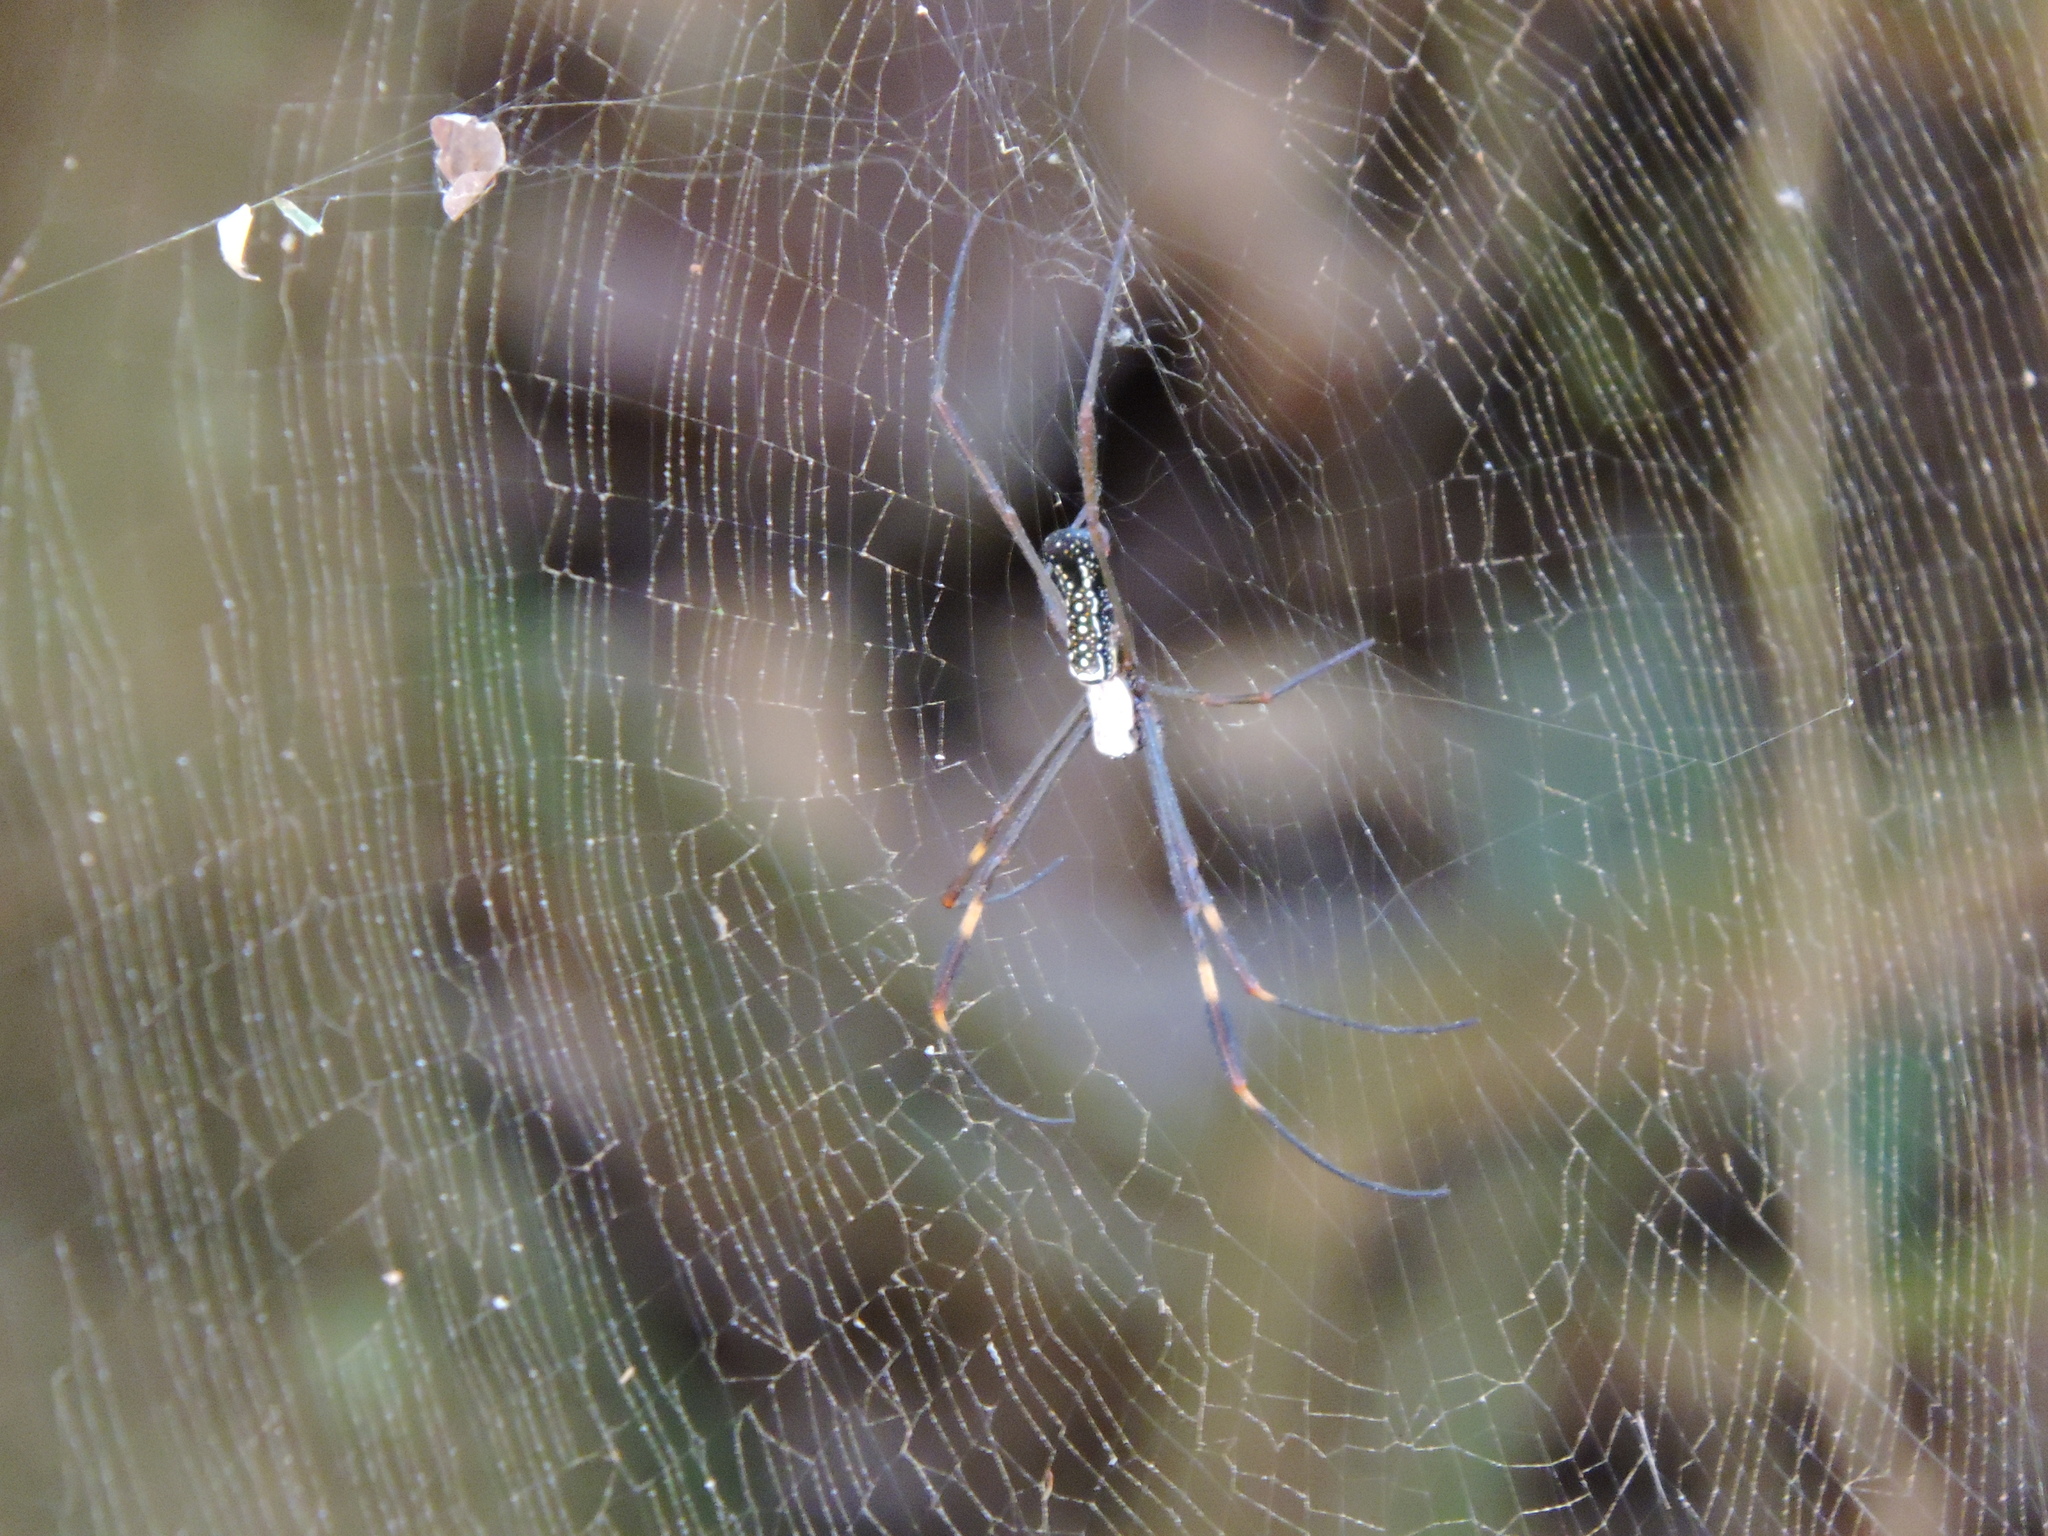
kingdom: Animalia
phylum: Arthropoda
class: Arachnida
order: Araneae
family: Araneidae
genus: Trichonephila
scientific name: Trichonephila clavipes
